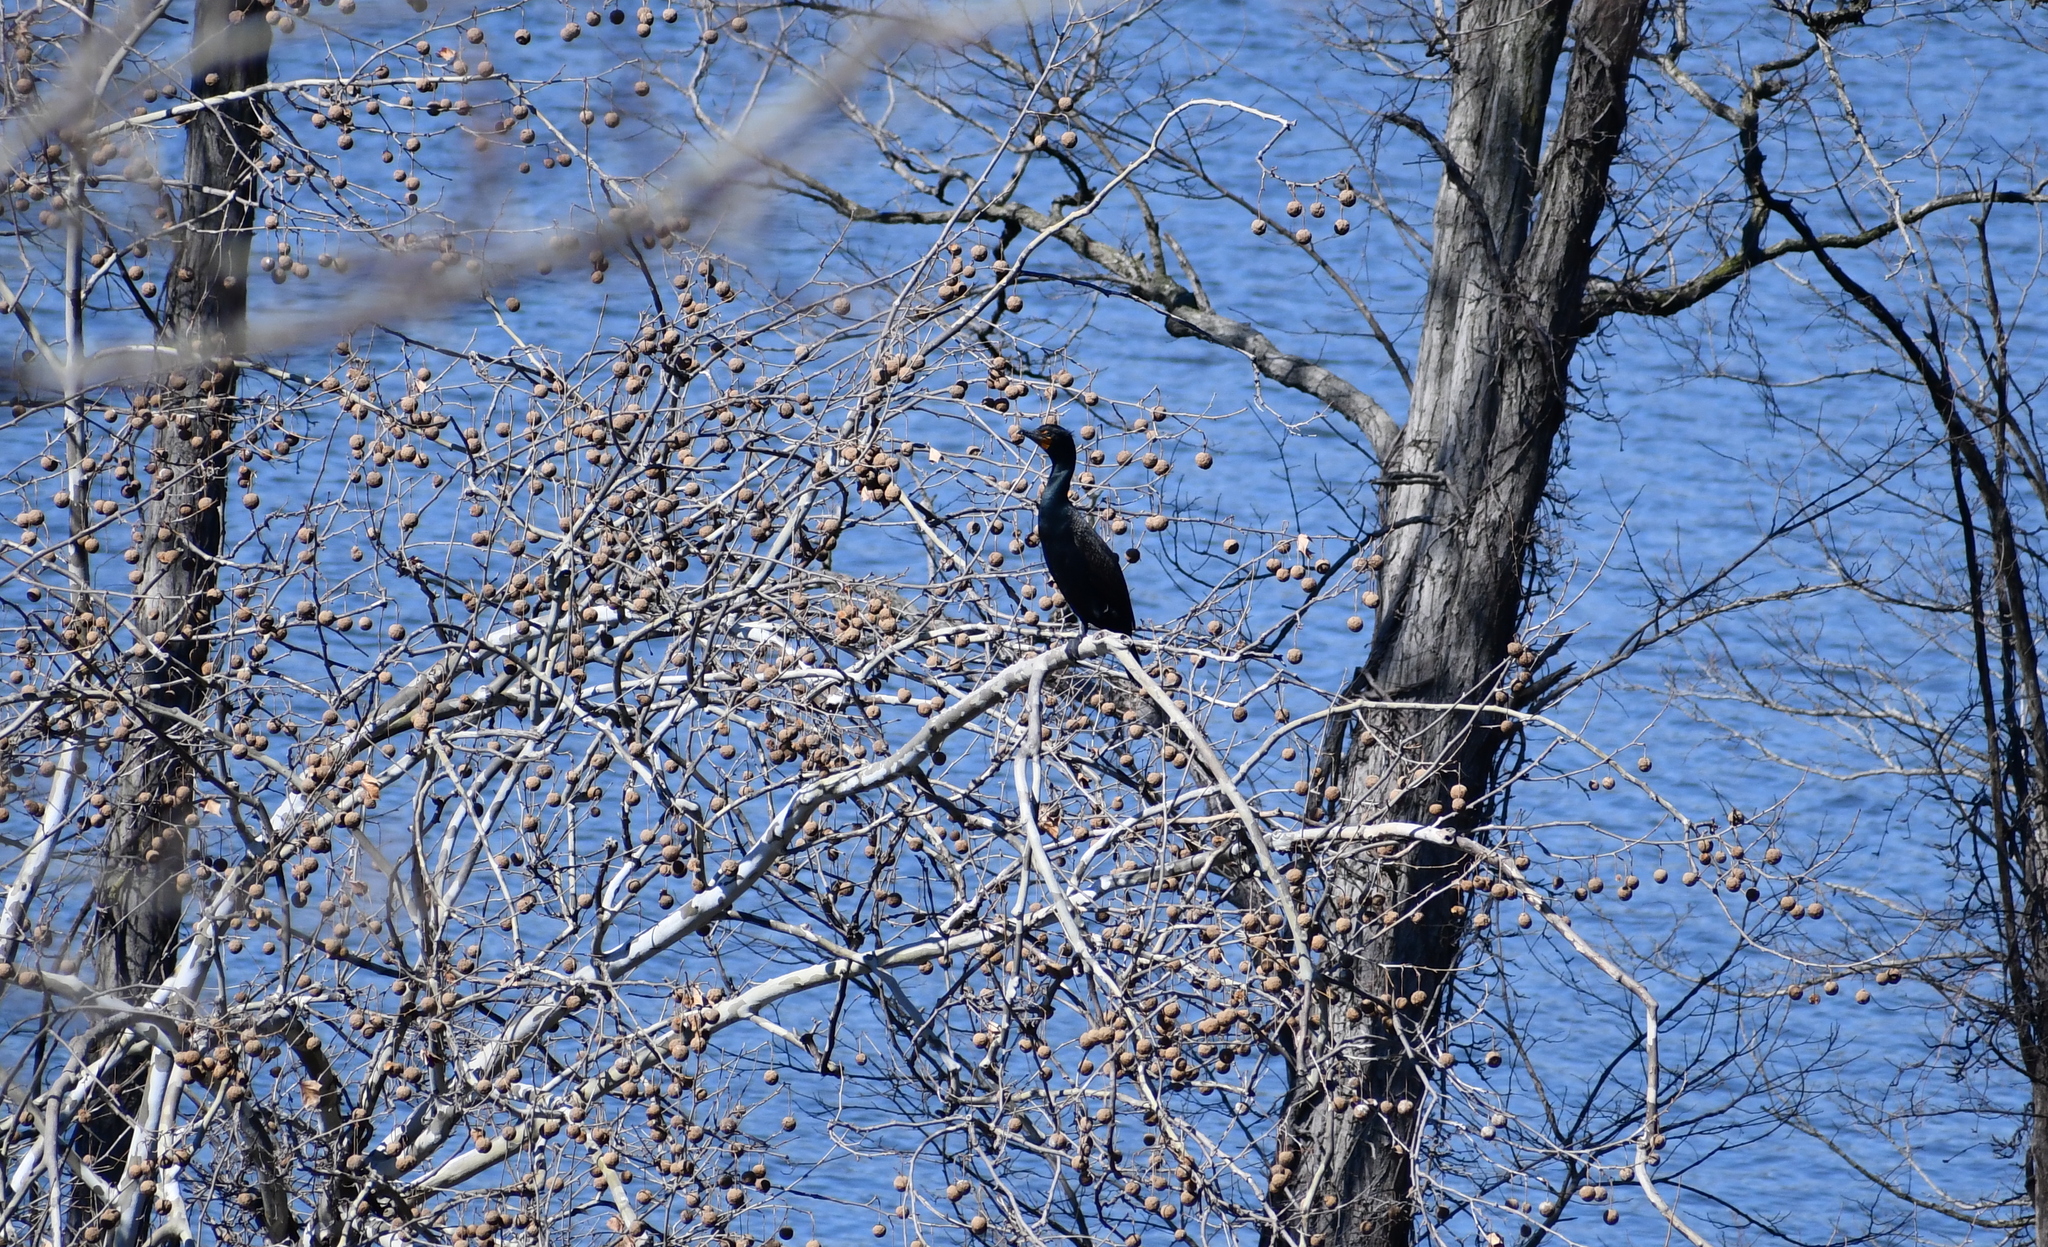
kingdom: Animalia
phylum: Chordata
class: Aves
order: Suliformes
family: Phalacrocoracidae
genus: Phalacrocorax
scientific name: Phalacrocorax auritus
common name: Double-crested cormorant
